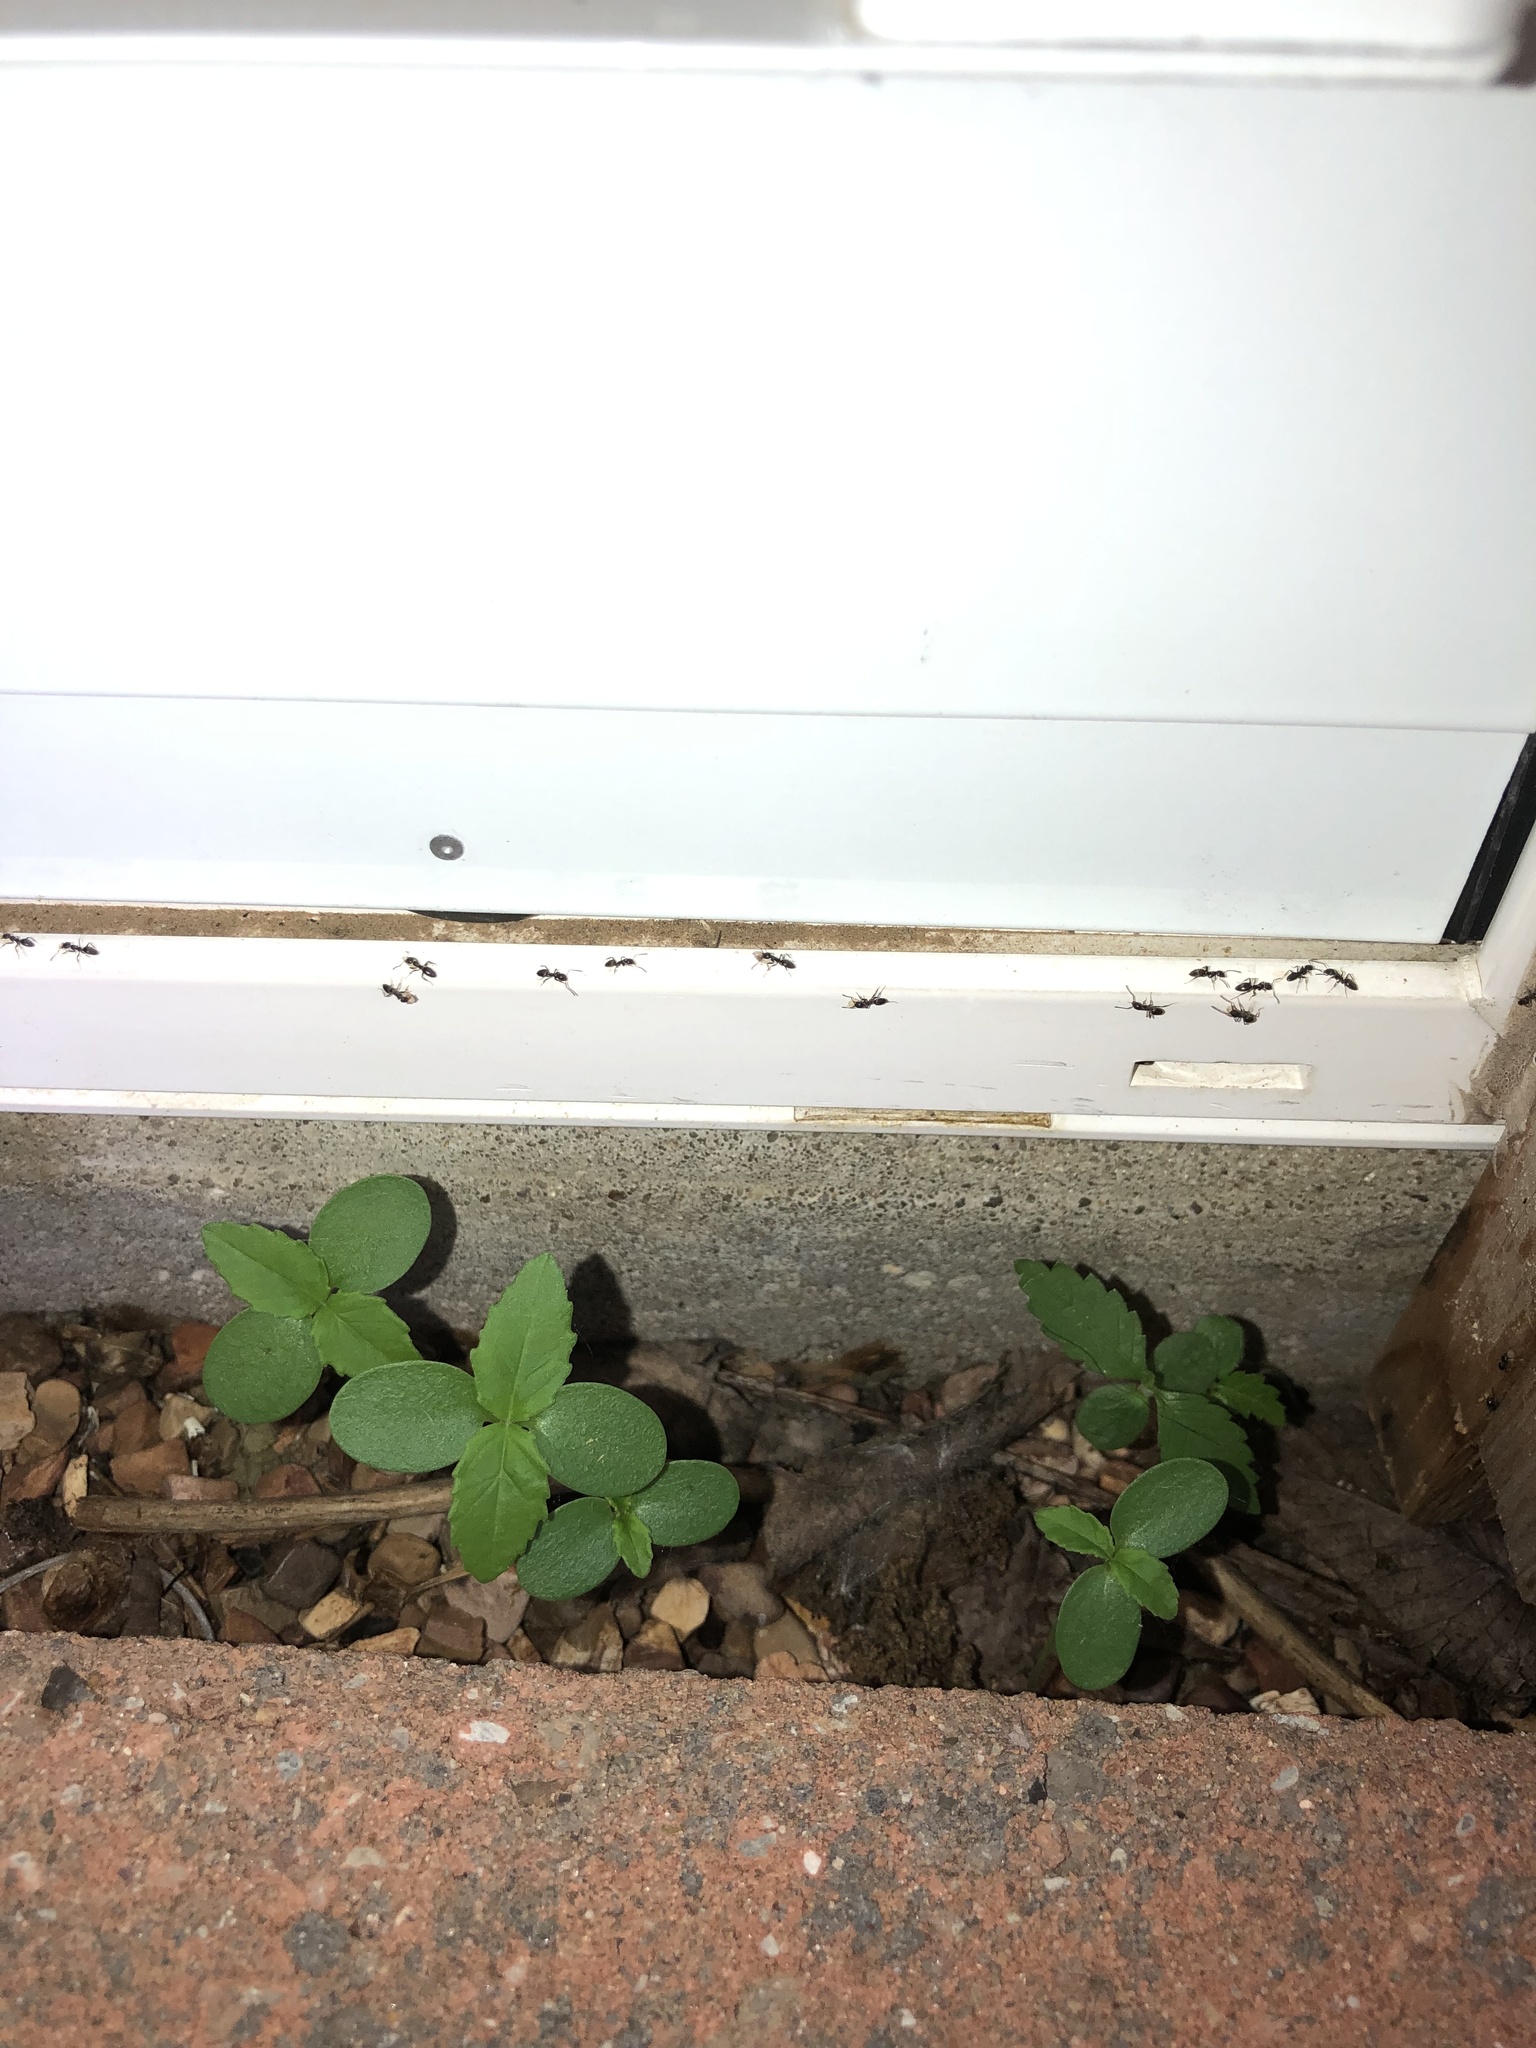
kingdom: Animalia
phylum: Arthropoda
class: Insecta
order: Hymenoptera
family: Formicidae
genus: Tapinoma
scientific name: Tapinoma sessile
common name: Odorous house ant
